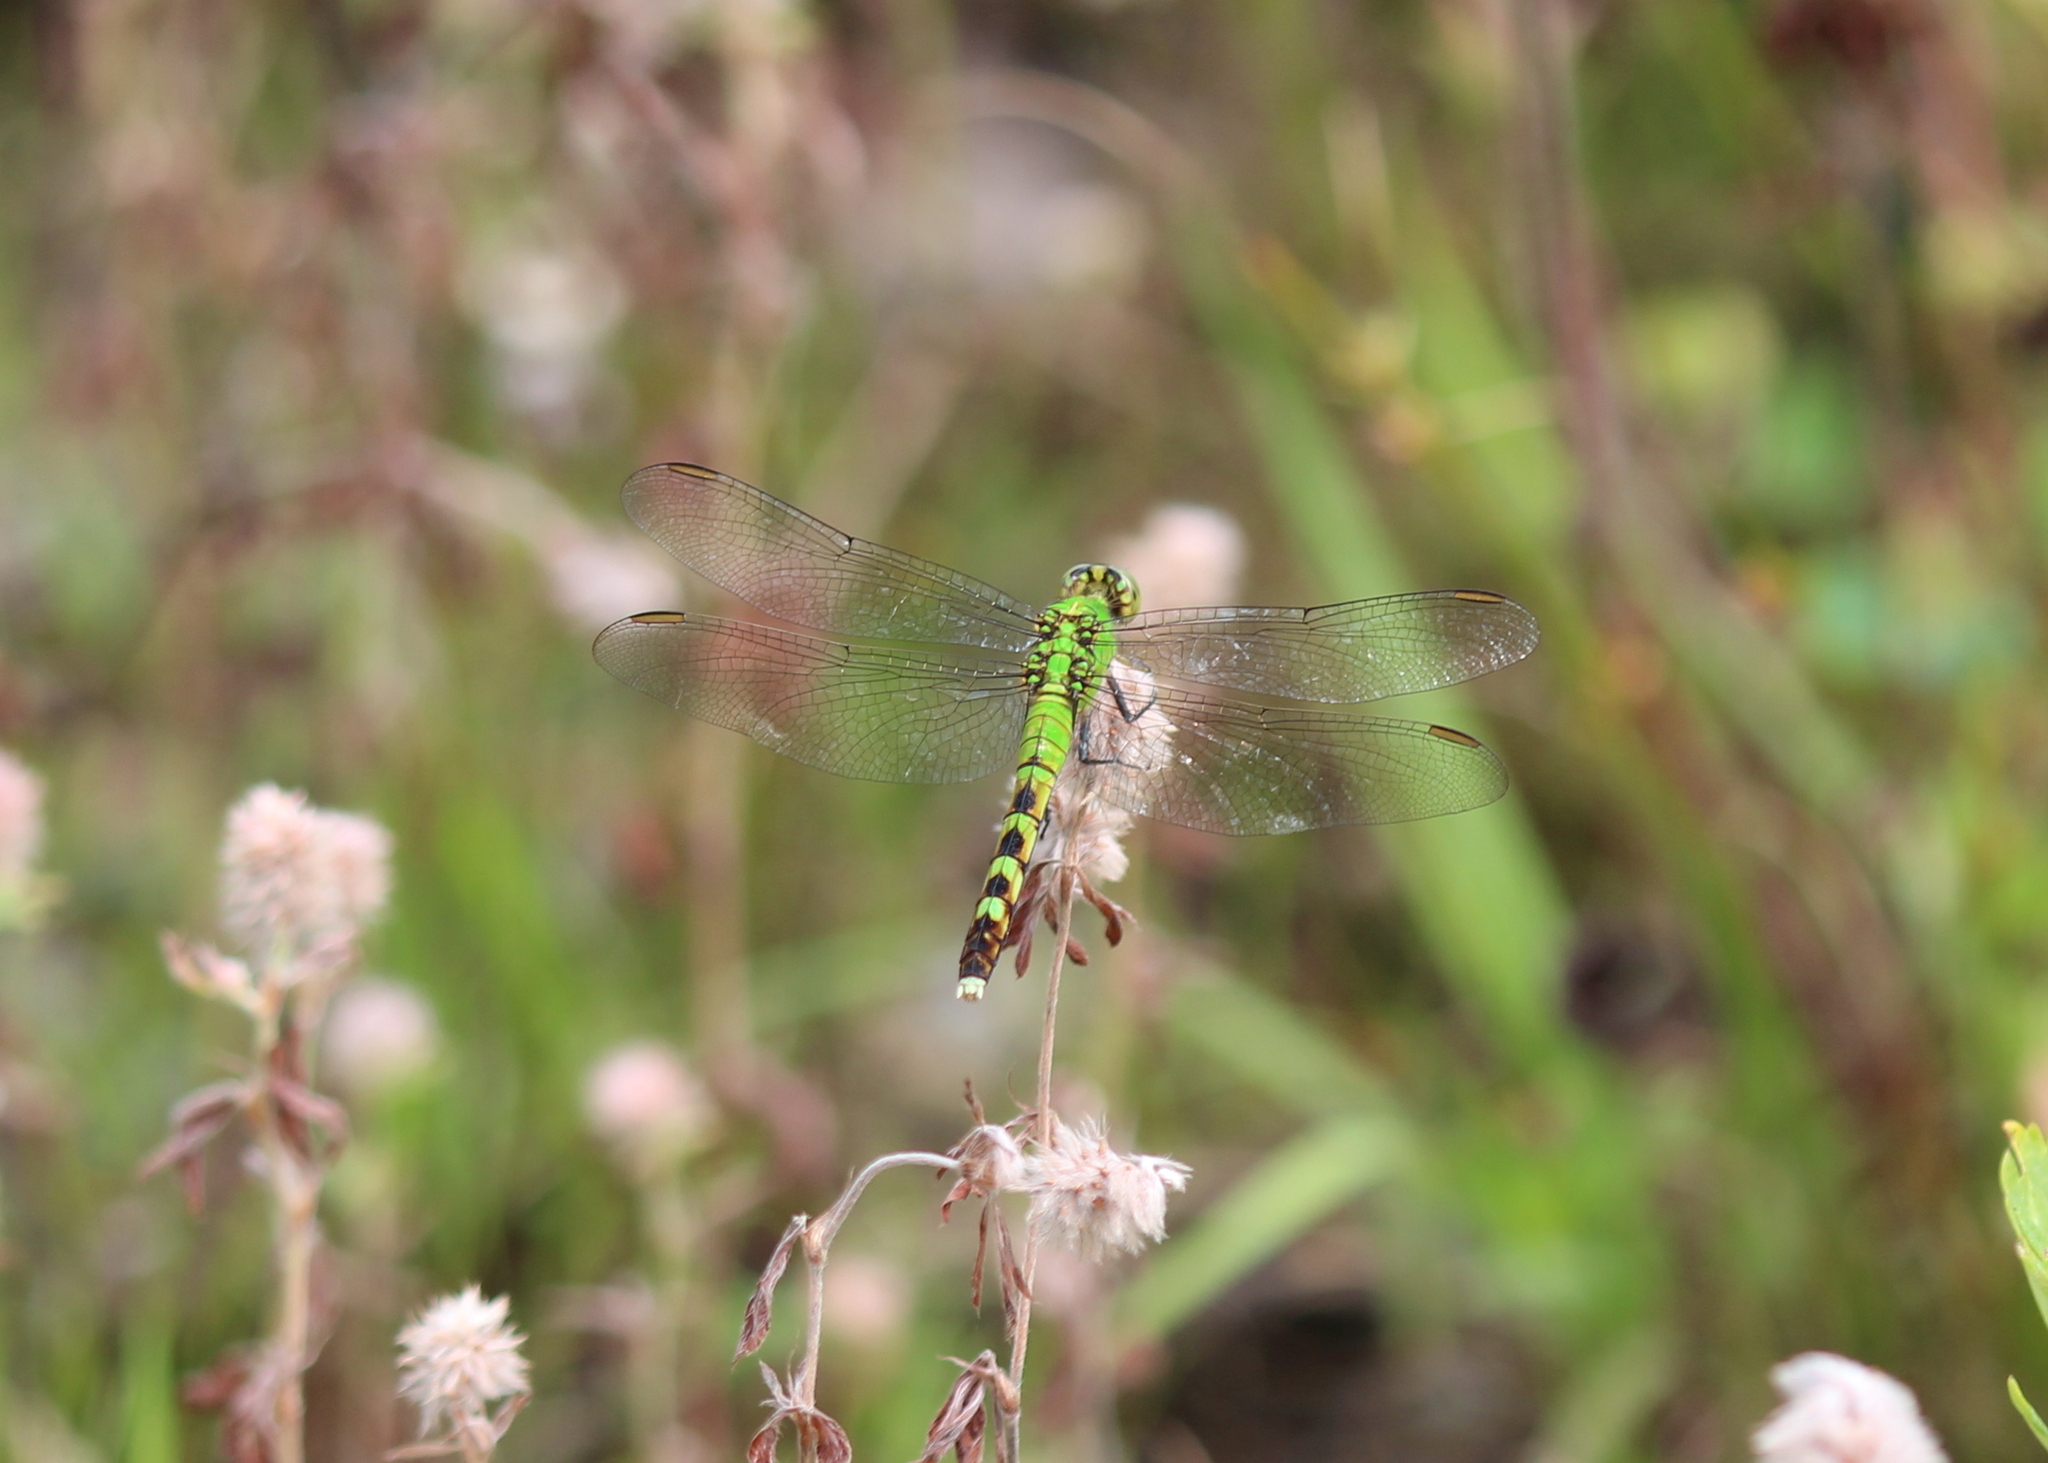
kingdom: Animalia
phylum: Arthropoda
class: Insecta
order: Odonata
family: Libellulidae
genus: Erythemis
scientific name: Erythemis simplicicollis
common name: Eastern pondhawk
